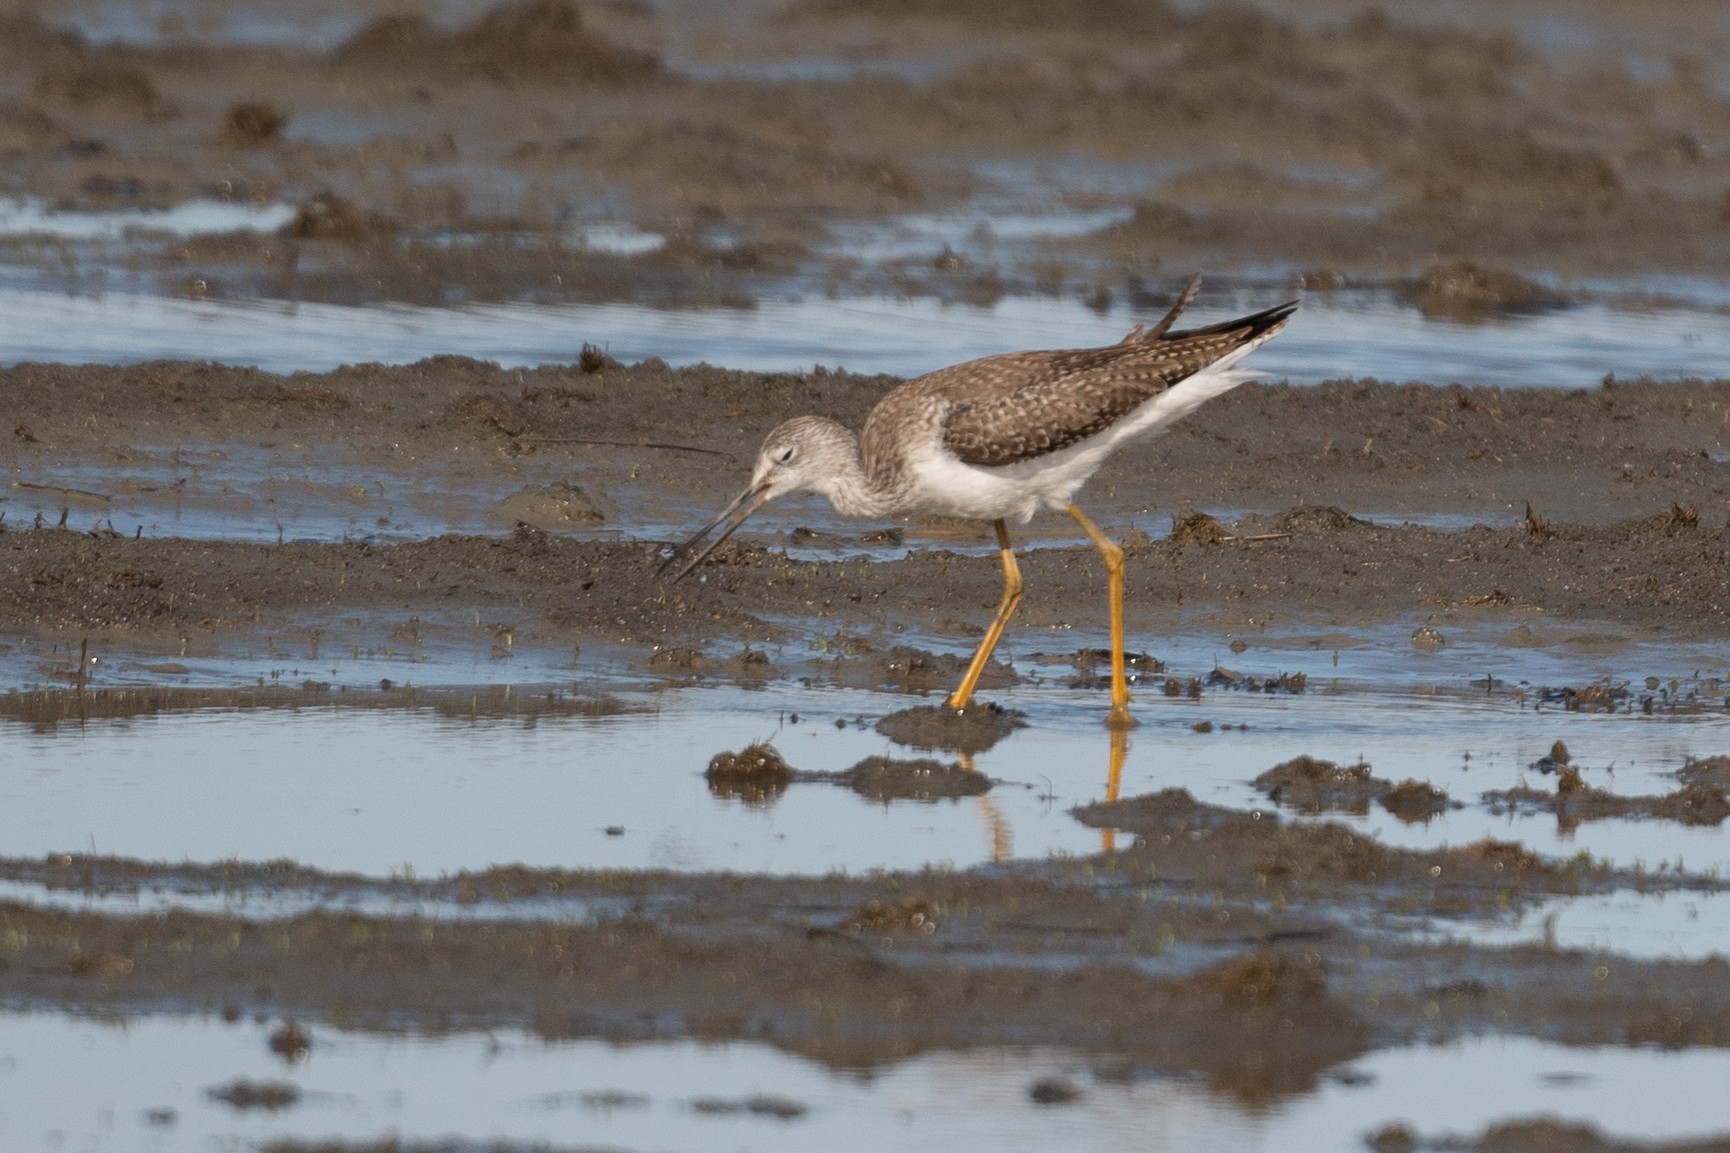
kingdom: Animalia
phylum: Chordata
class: Aves
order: Charadriiformes
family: Scolopacidae
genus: Tringa
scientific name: Tringa melanoleuca
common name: Greater yellowlegs
